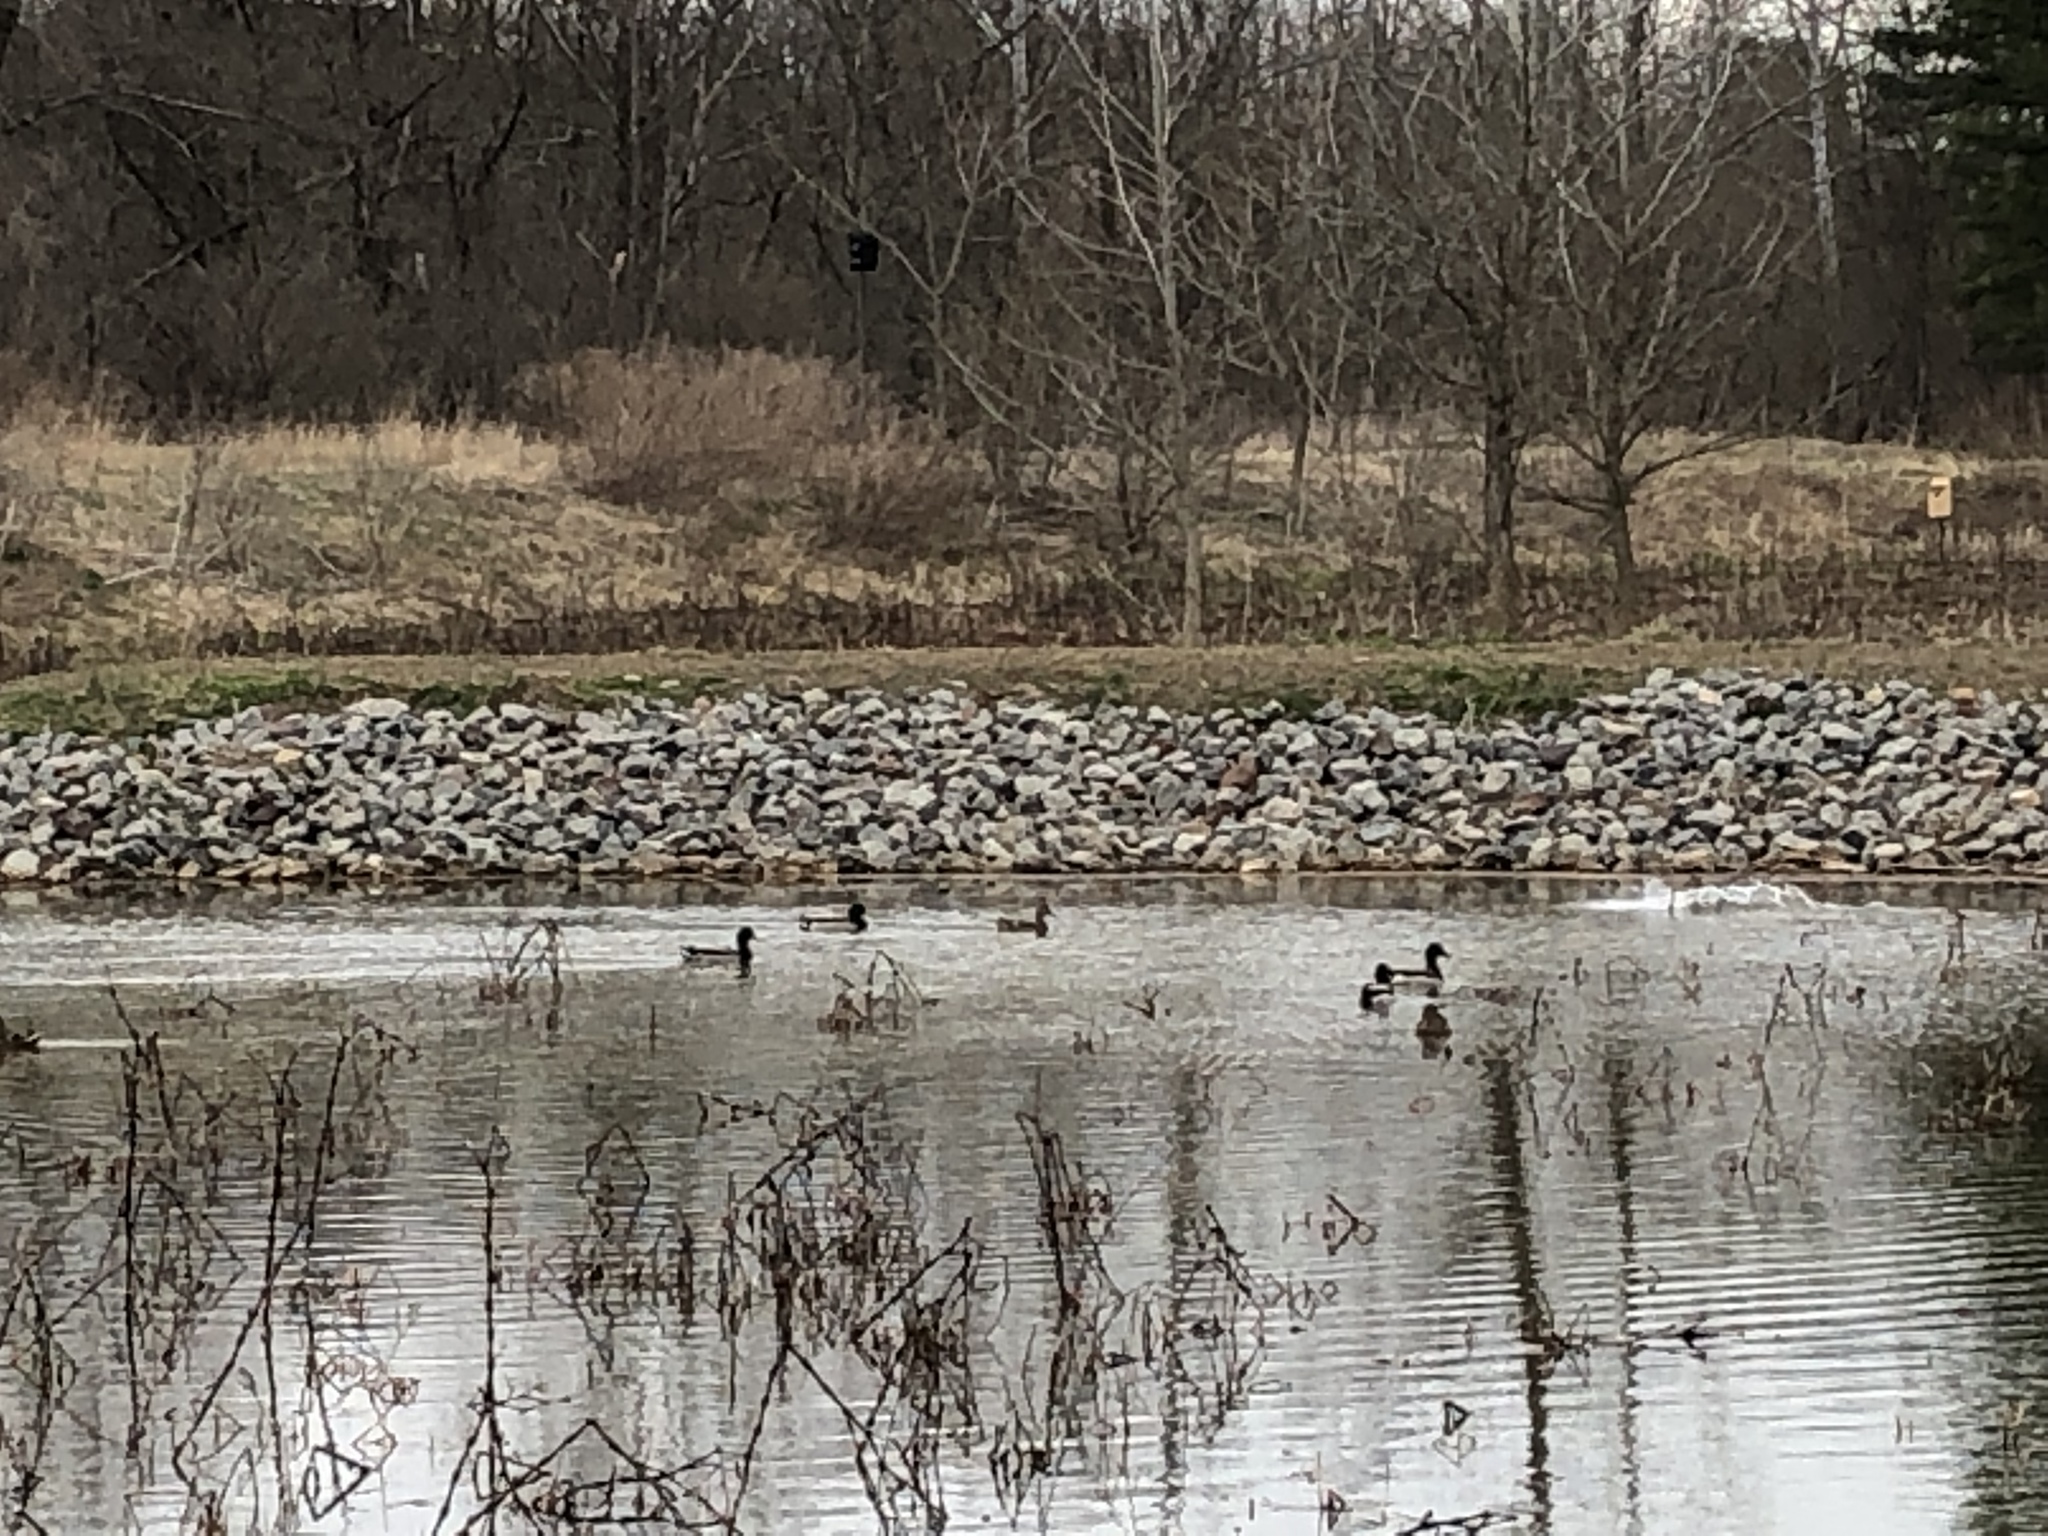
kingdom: Animalia
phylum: Chordata
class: Aves
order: Anseriformes
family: Anatidae
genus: Anas
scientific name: Anas platyrhynchos
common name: Mallard
